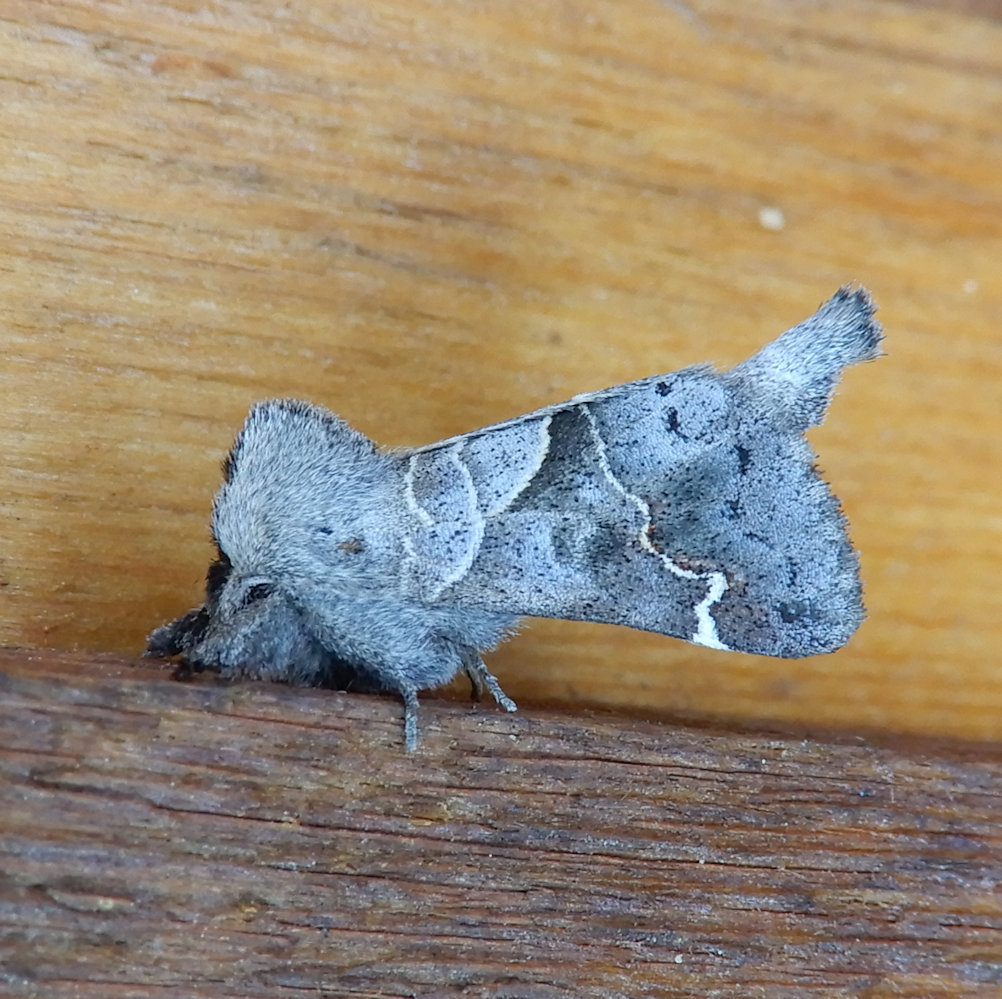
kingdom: Animalia
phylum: Arthropoda
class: Insecta
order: Lepidoptera
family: Notodontidae
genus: Clostera
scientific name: Clostera apicalis
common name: Apical prominent
